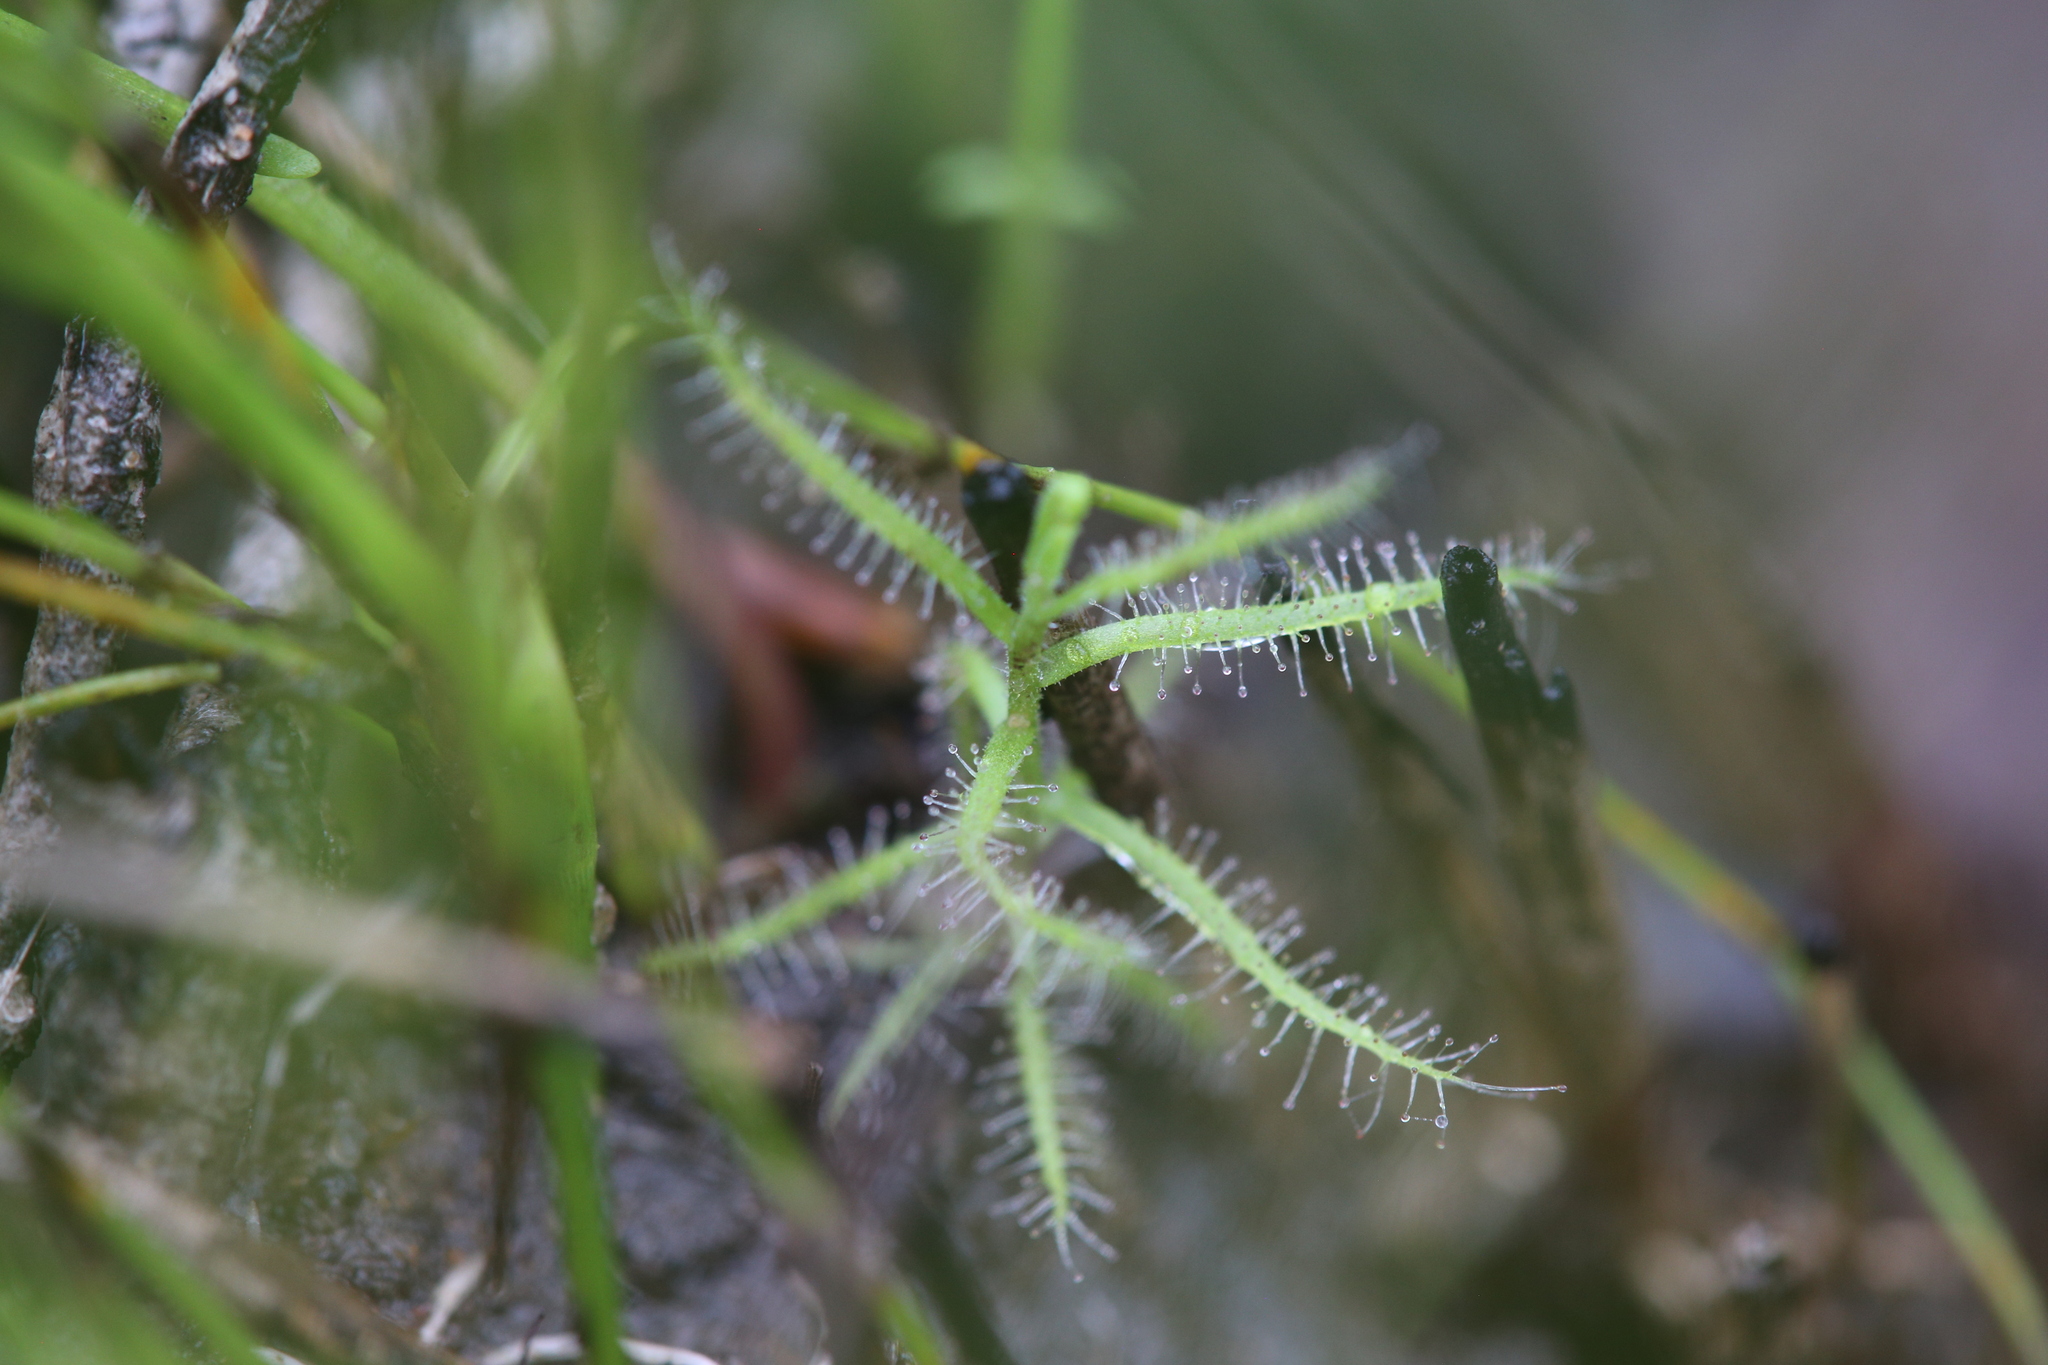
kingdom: Plantae
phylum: Tracheophyta
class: Magnoliopsida
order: Caryophyllales
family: Droseraceae
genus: Drosera
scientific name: Drosera fragrans
